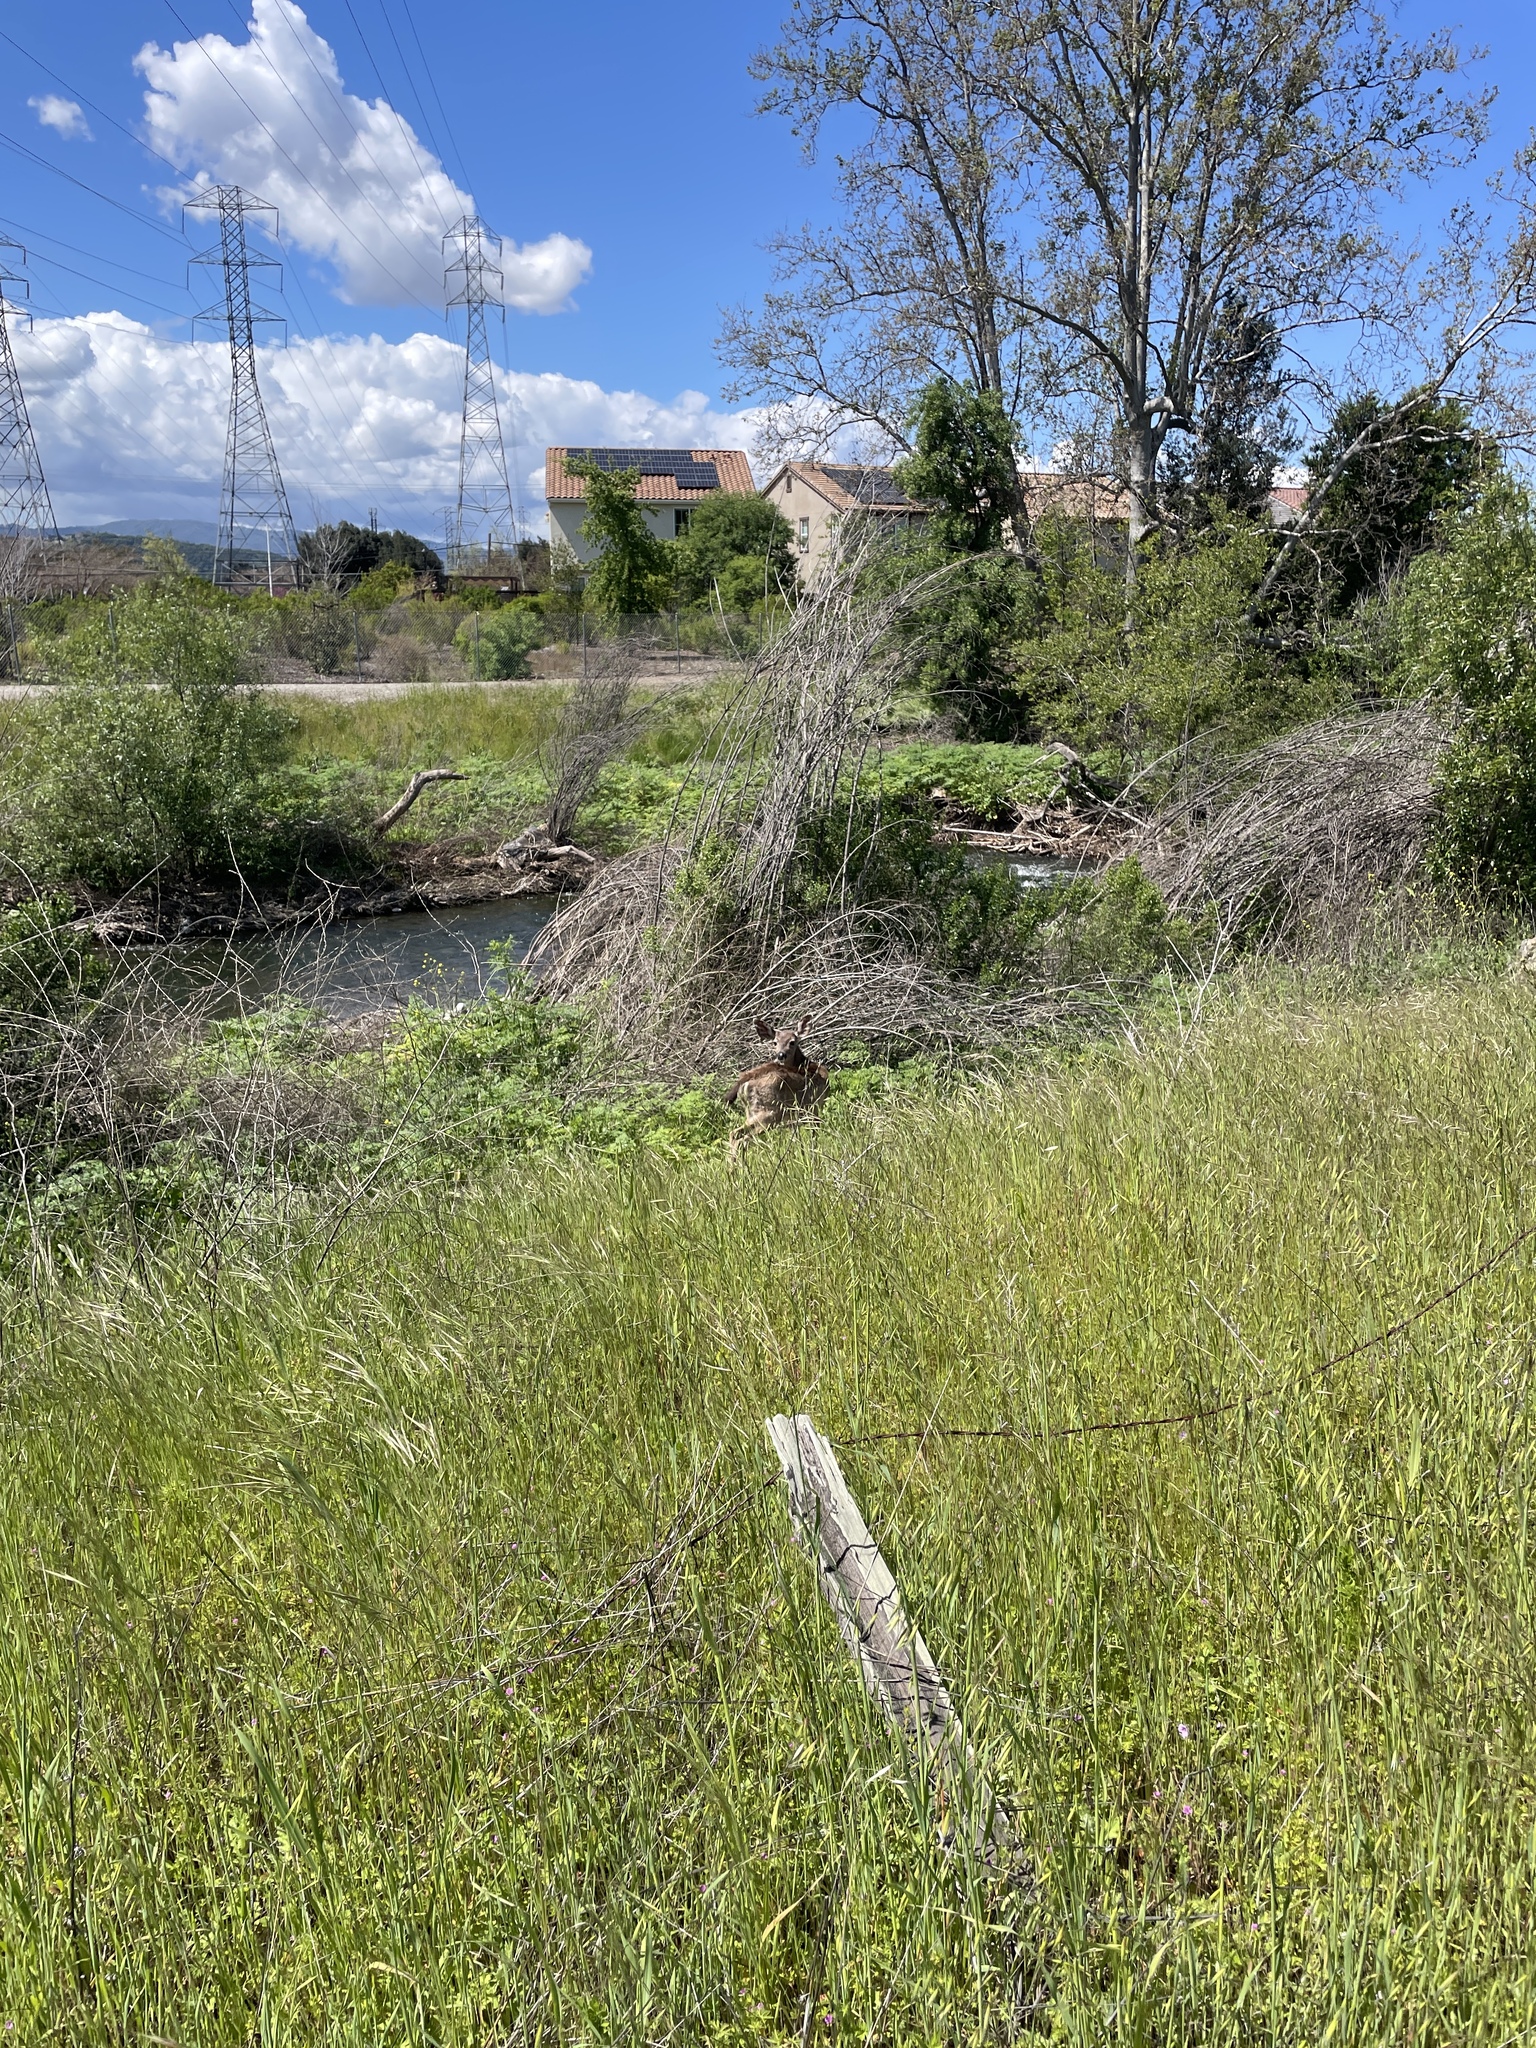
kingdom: Animalia
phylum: Chordata
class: Mammalia
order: Artiodactyla
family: Cervidae
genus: Odocoileus
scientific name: Odocoileus hemionus
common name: Mule deer
